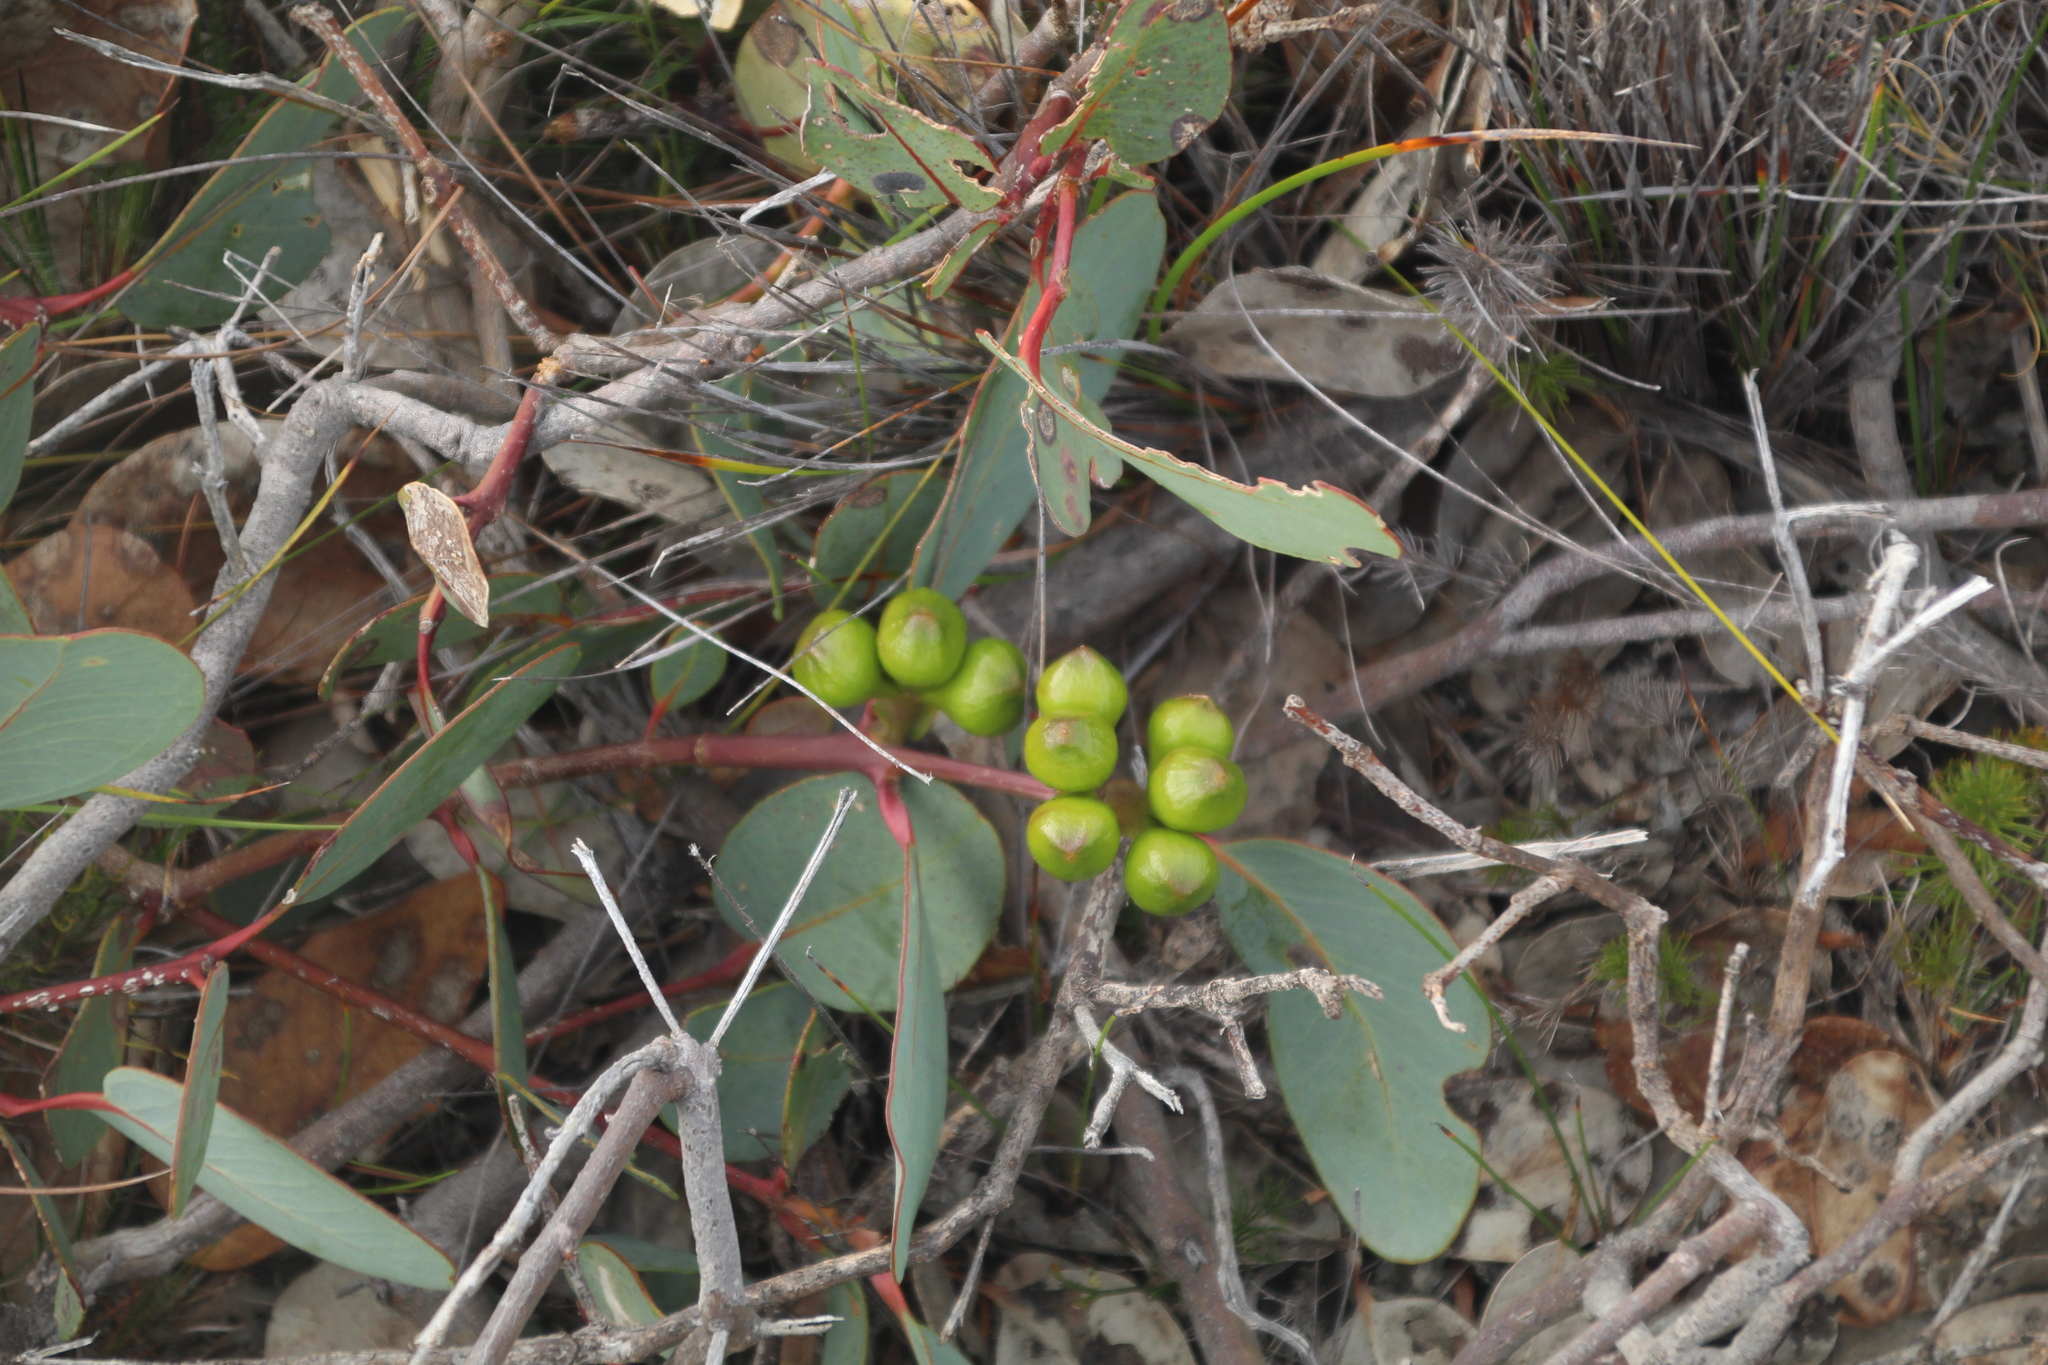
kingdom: Plantae
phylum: Tracheophyta
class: Magnoliopsida
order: Myrtales
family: Myrtaceae
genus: Eucalyptus
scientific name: Eucalyptus preissiana
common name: Stirling range mallee
